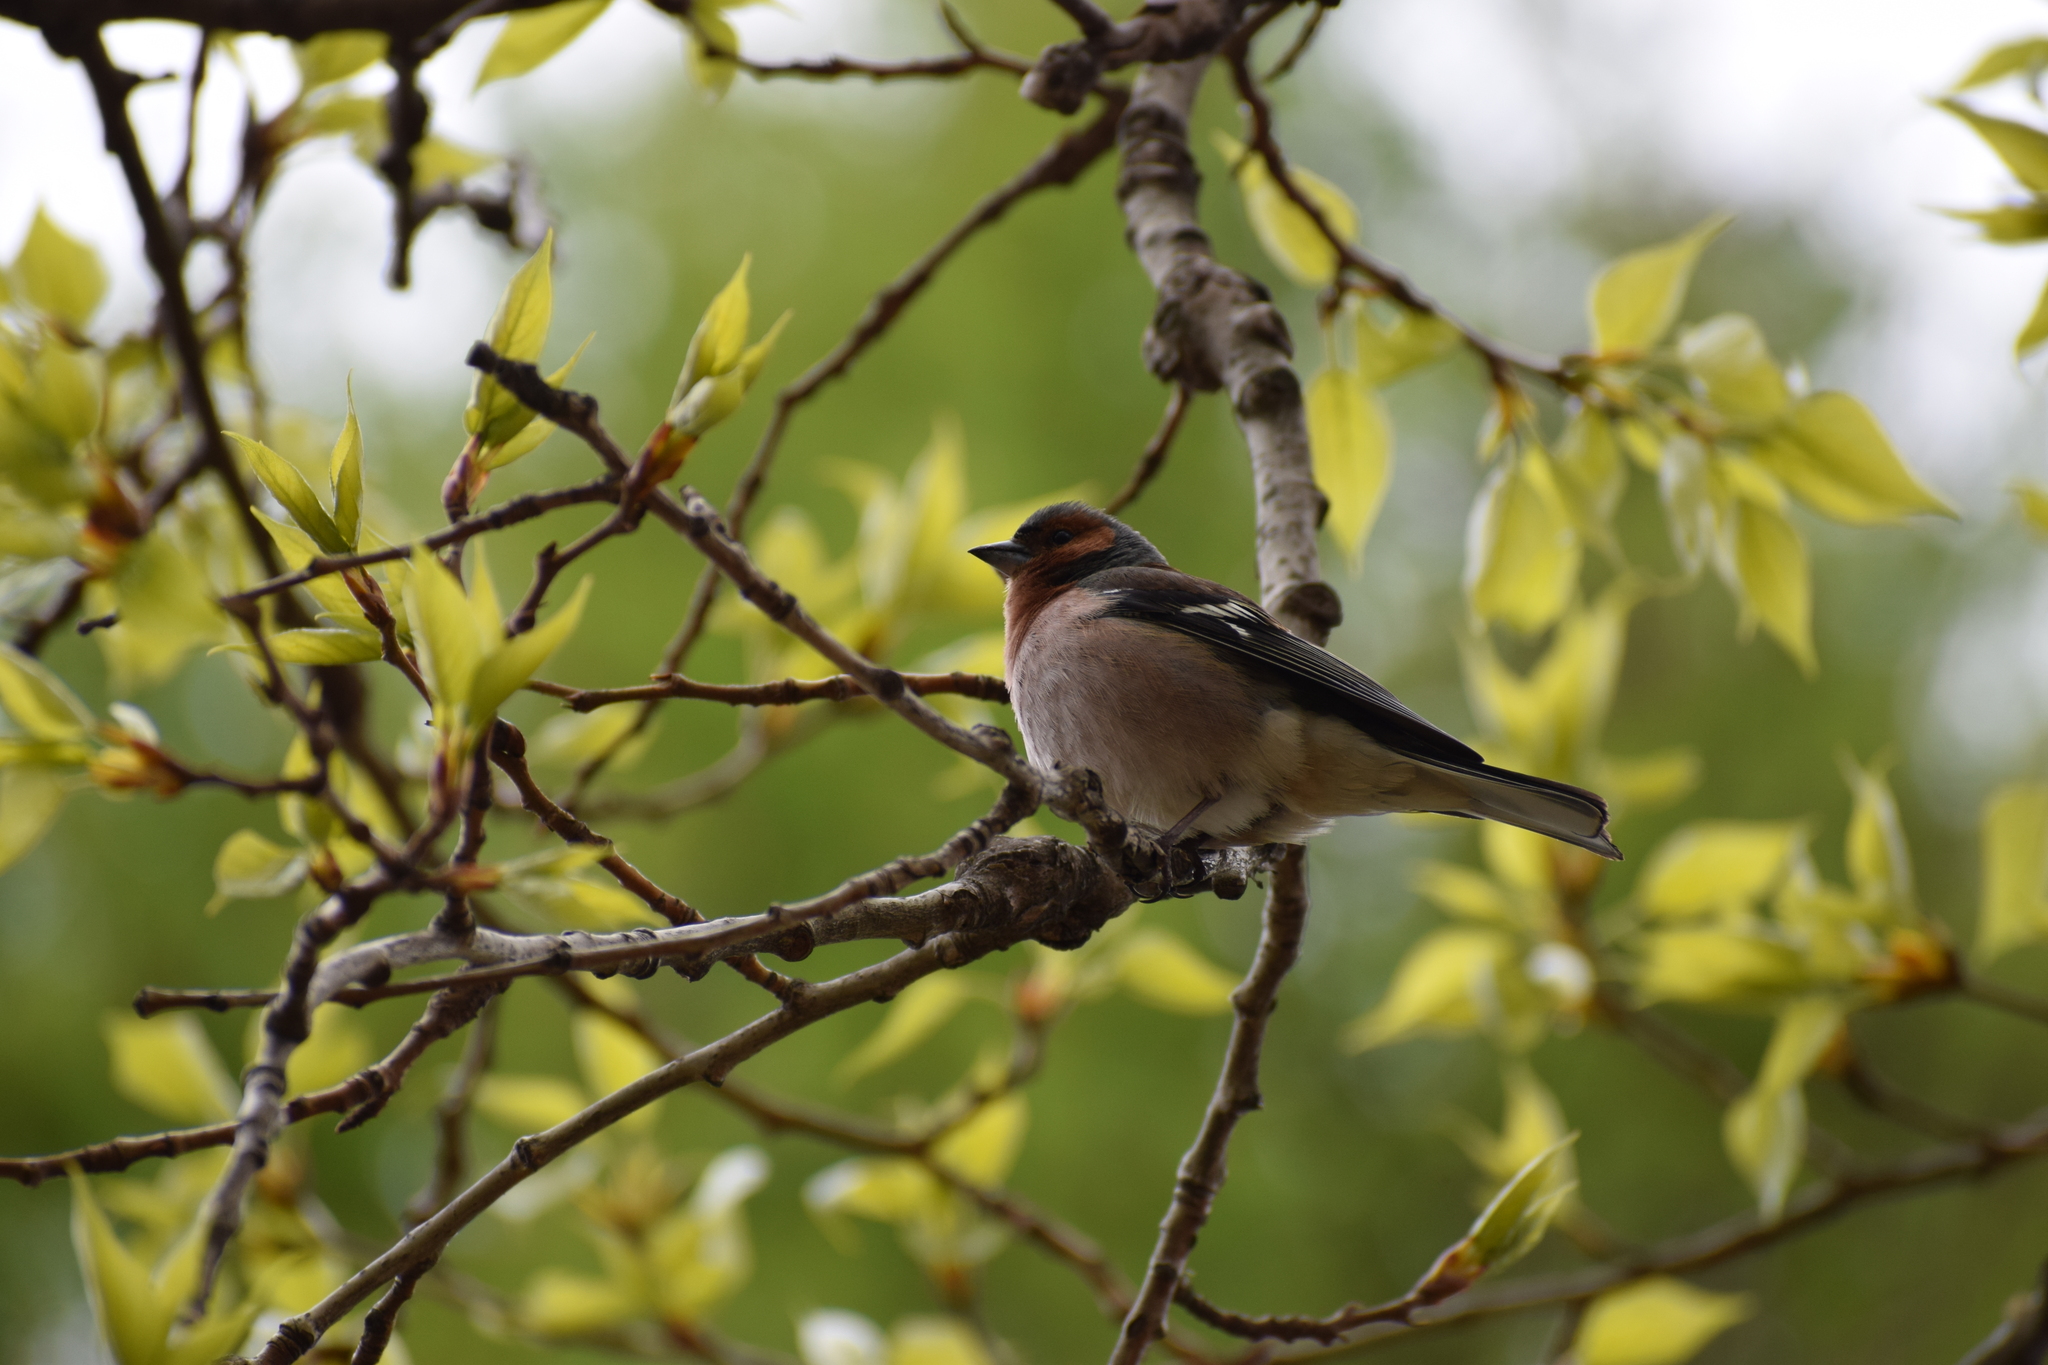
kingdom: Animalia
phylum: Chordata
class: Aves
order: Passeriformes
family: Fringillidae
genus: Fringilla
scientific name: Fringilla coelebs
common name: Common chaffinch
